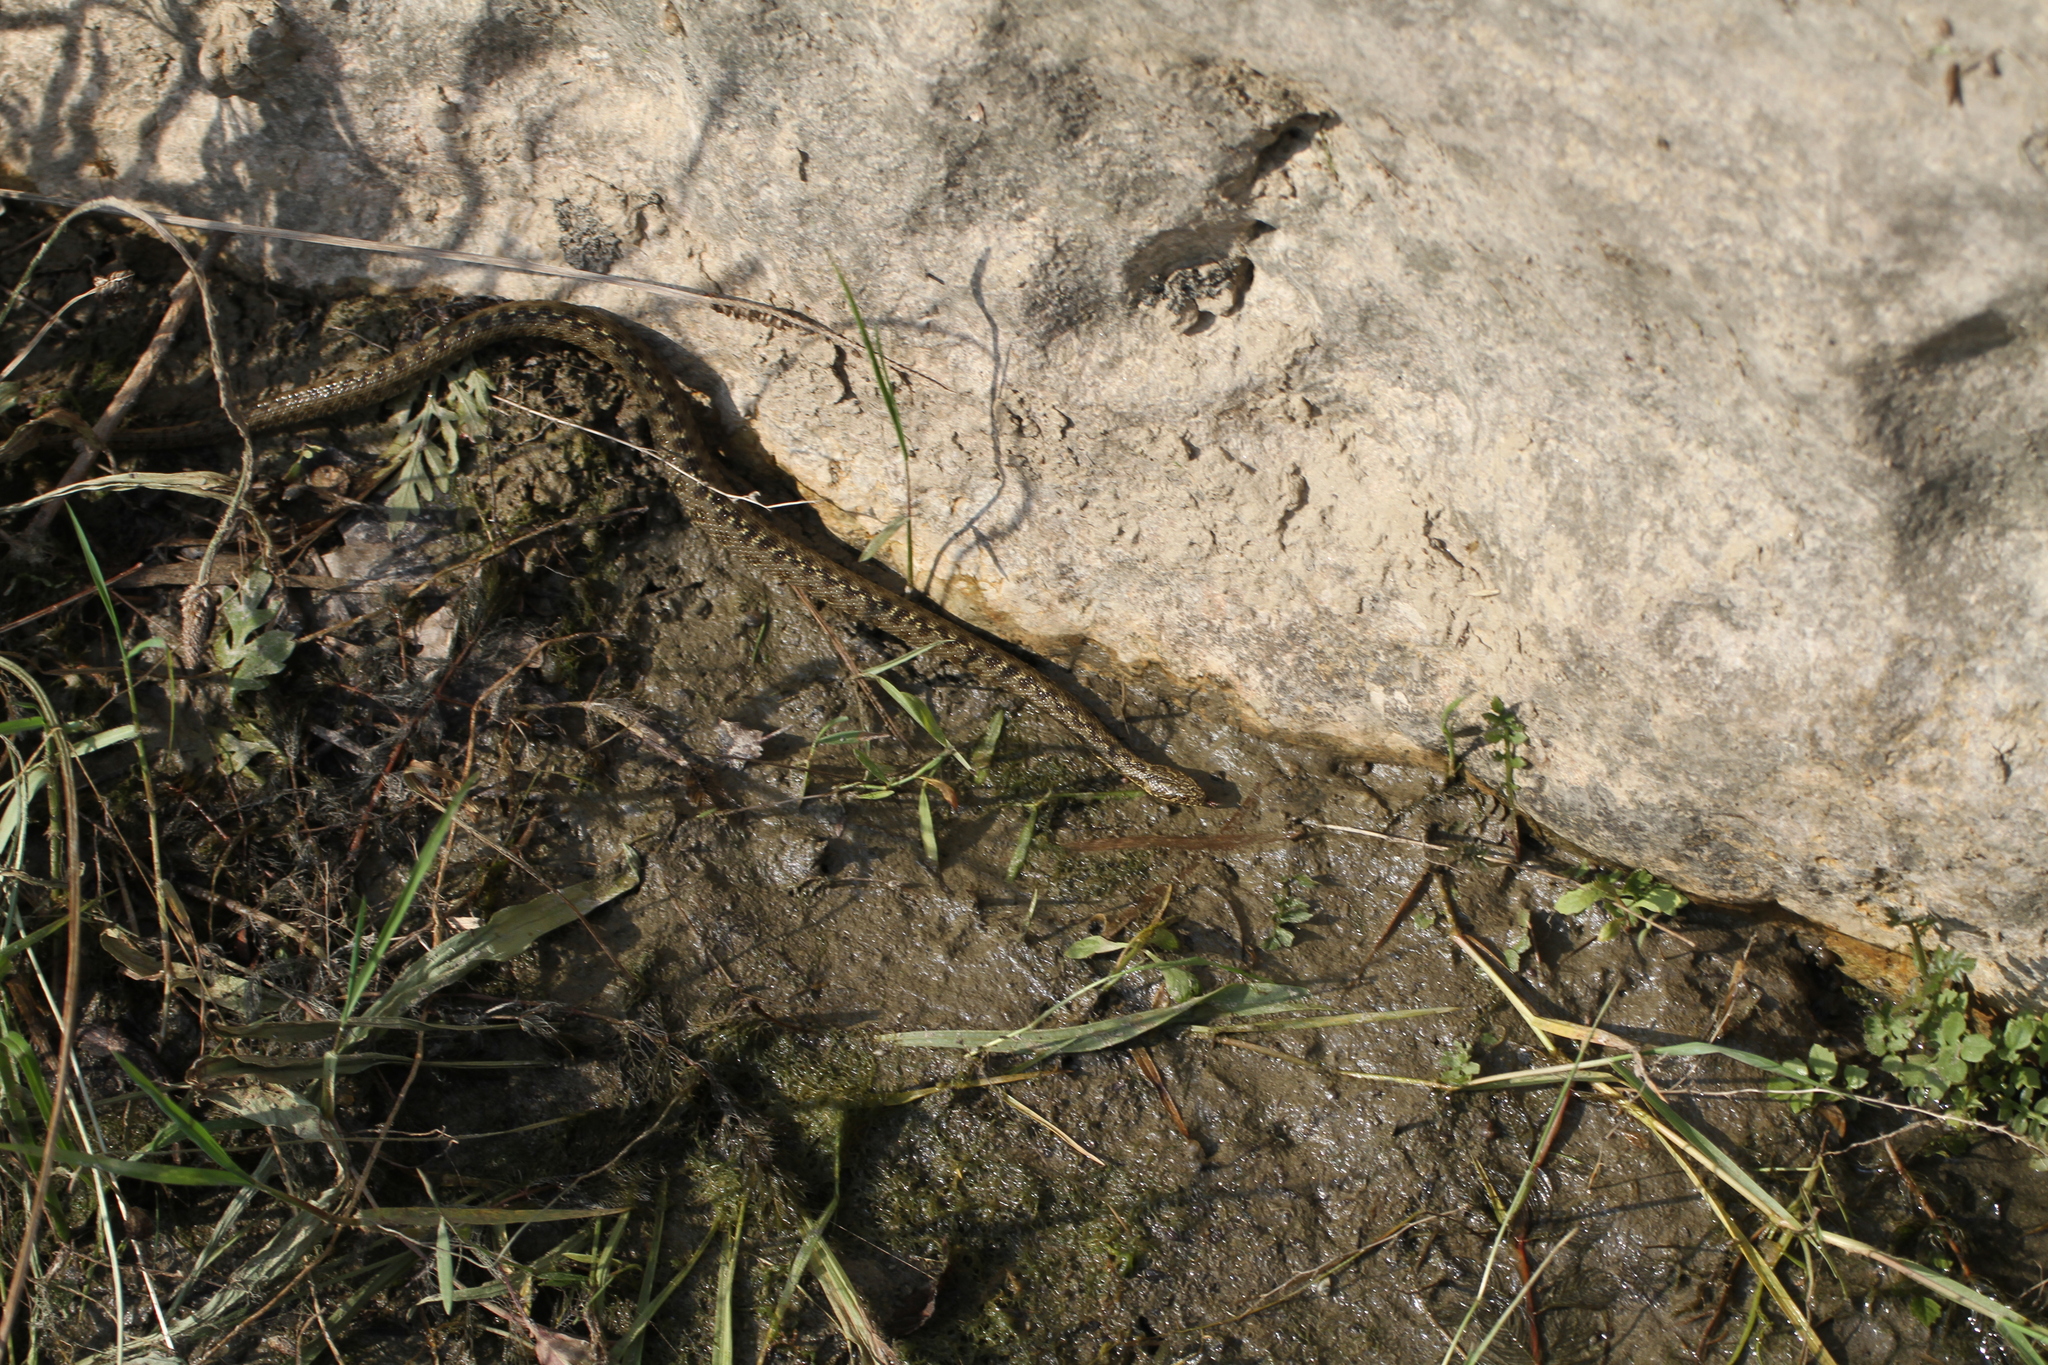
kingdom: Animalia
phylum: Chordata
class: Squamata
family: Colubridae
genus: Natrix
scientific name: Natrix maura
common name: Viperine water snake
